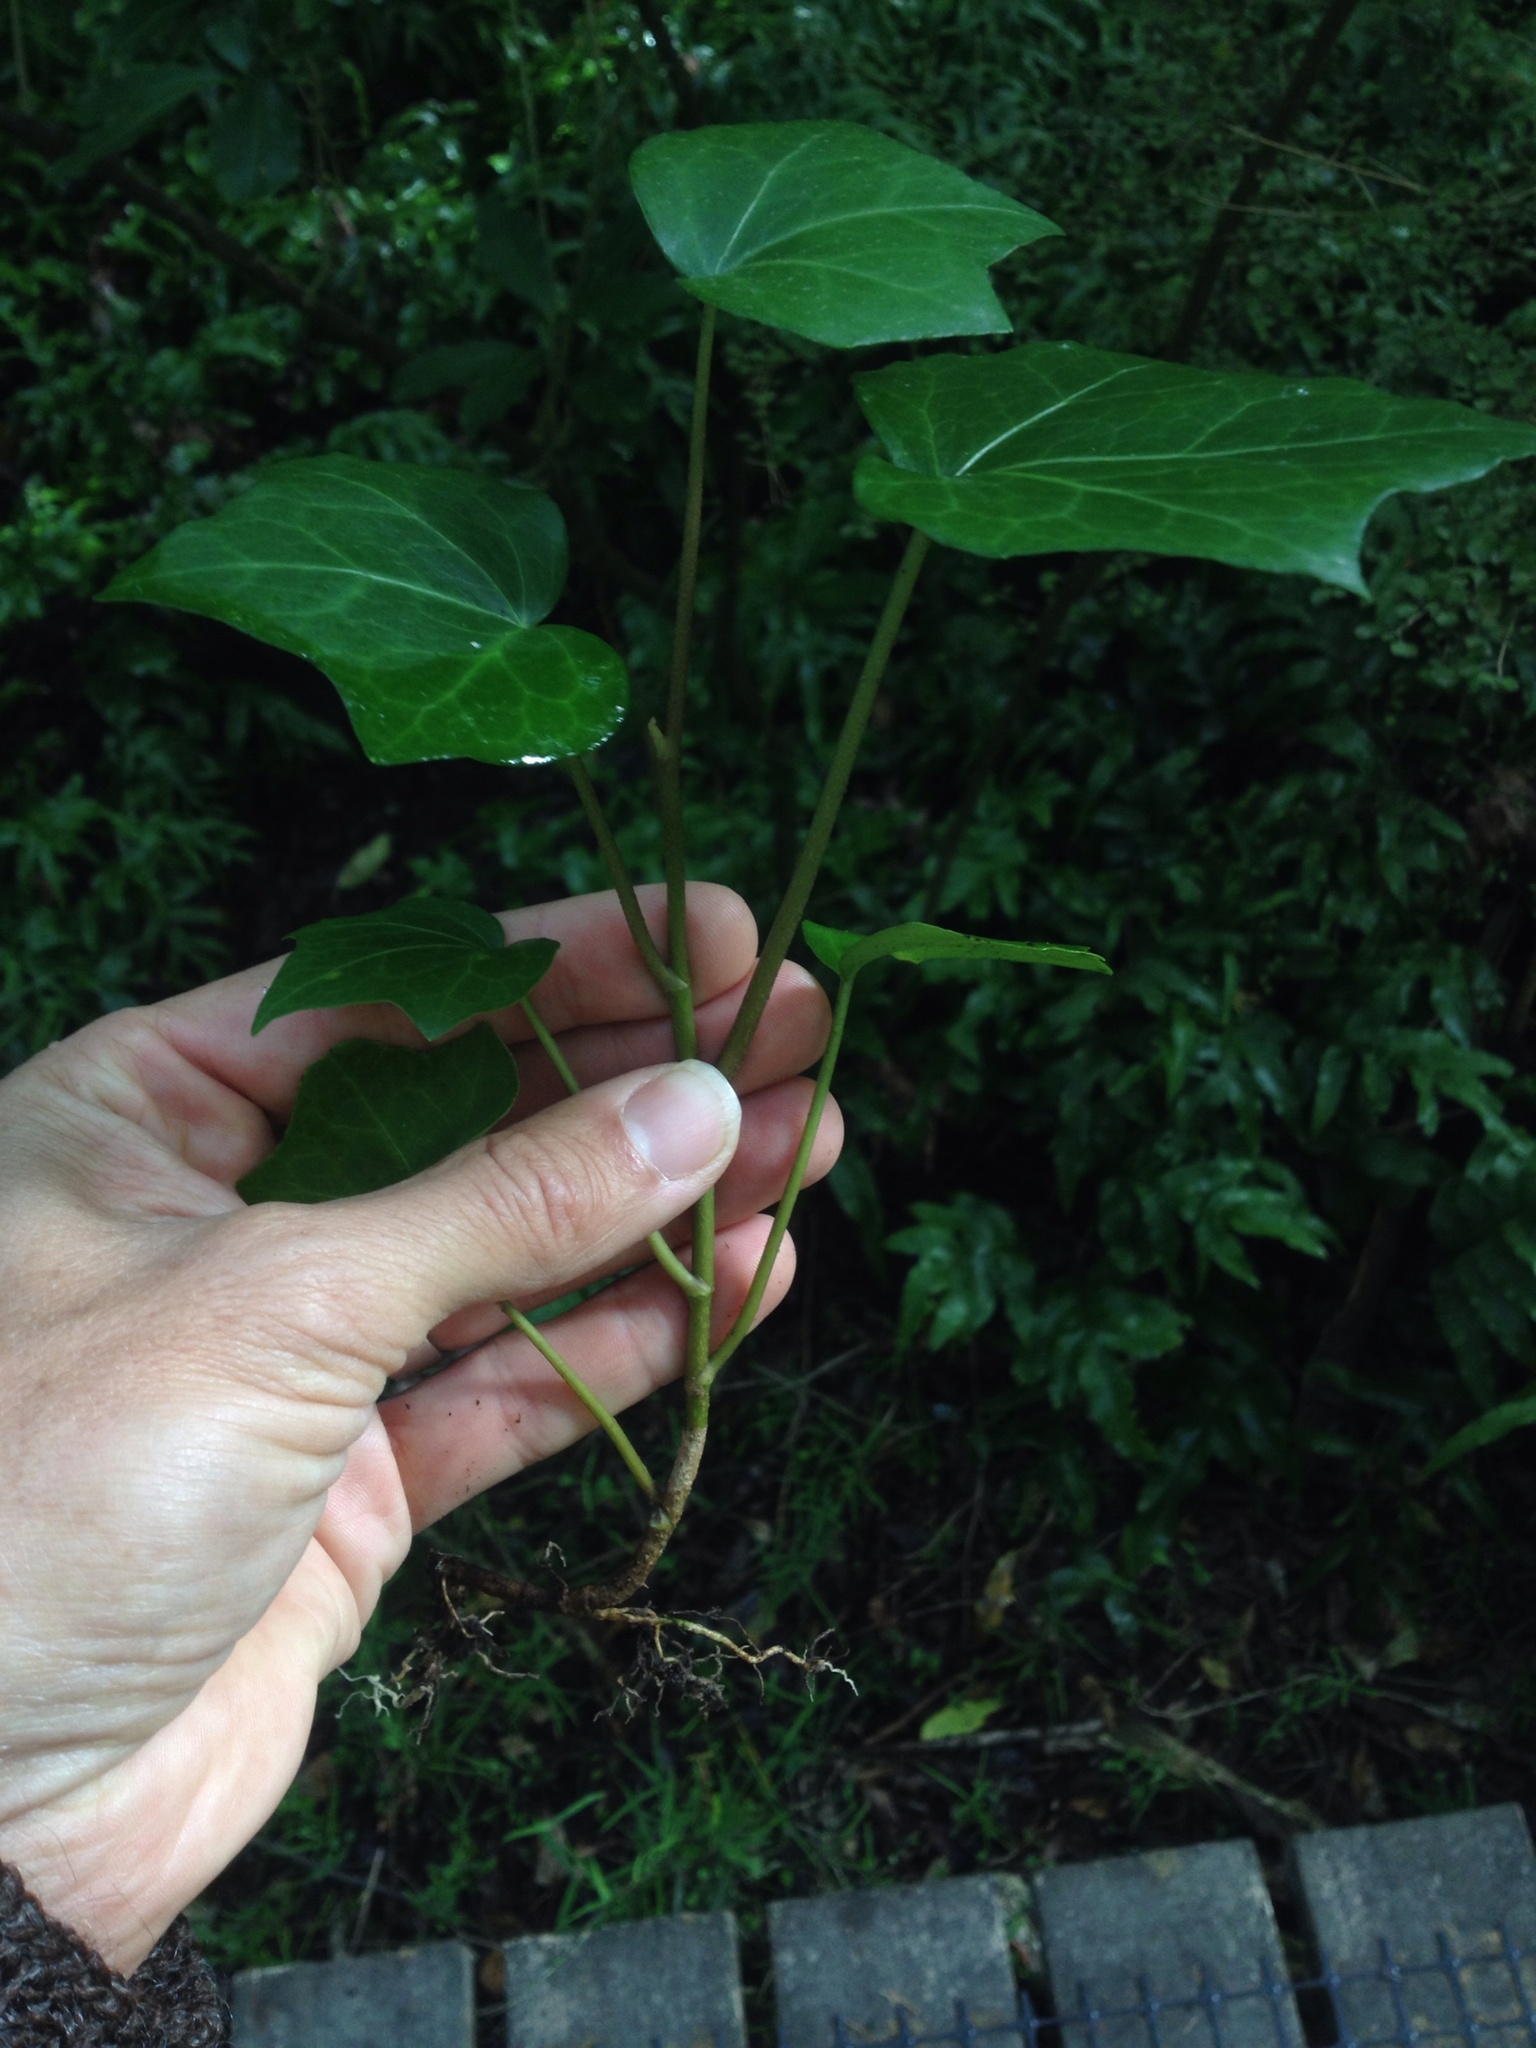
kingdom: Plantae
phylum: Tracheophyta
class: Magnoliopsida
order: Apiales
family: Araliaceae
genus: Hedera
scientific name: Hedera helix
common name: Ivy
